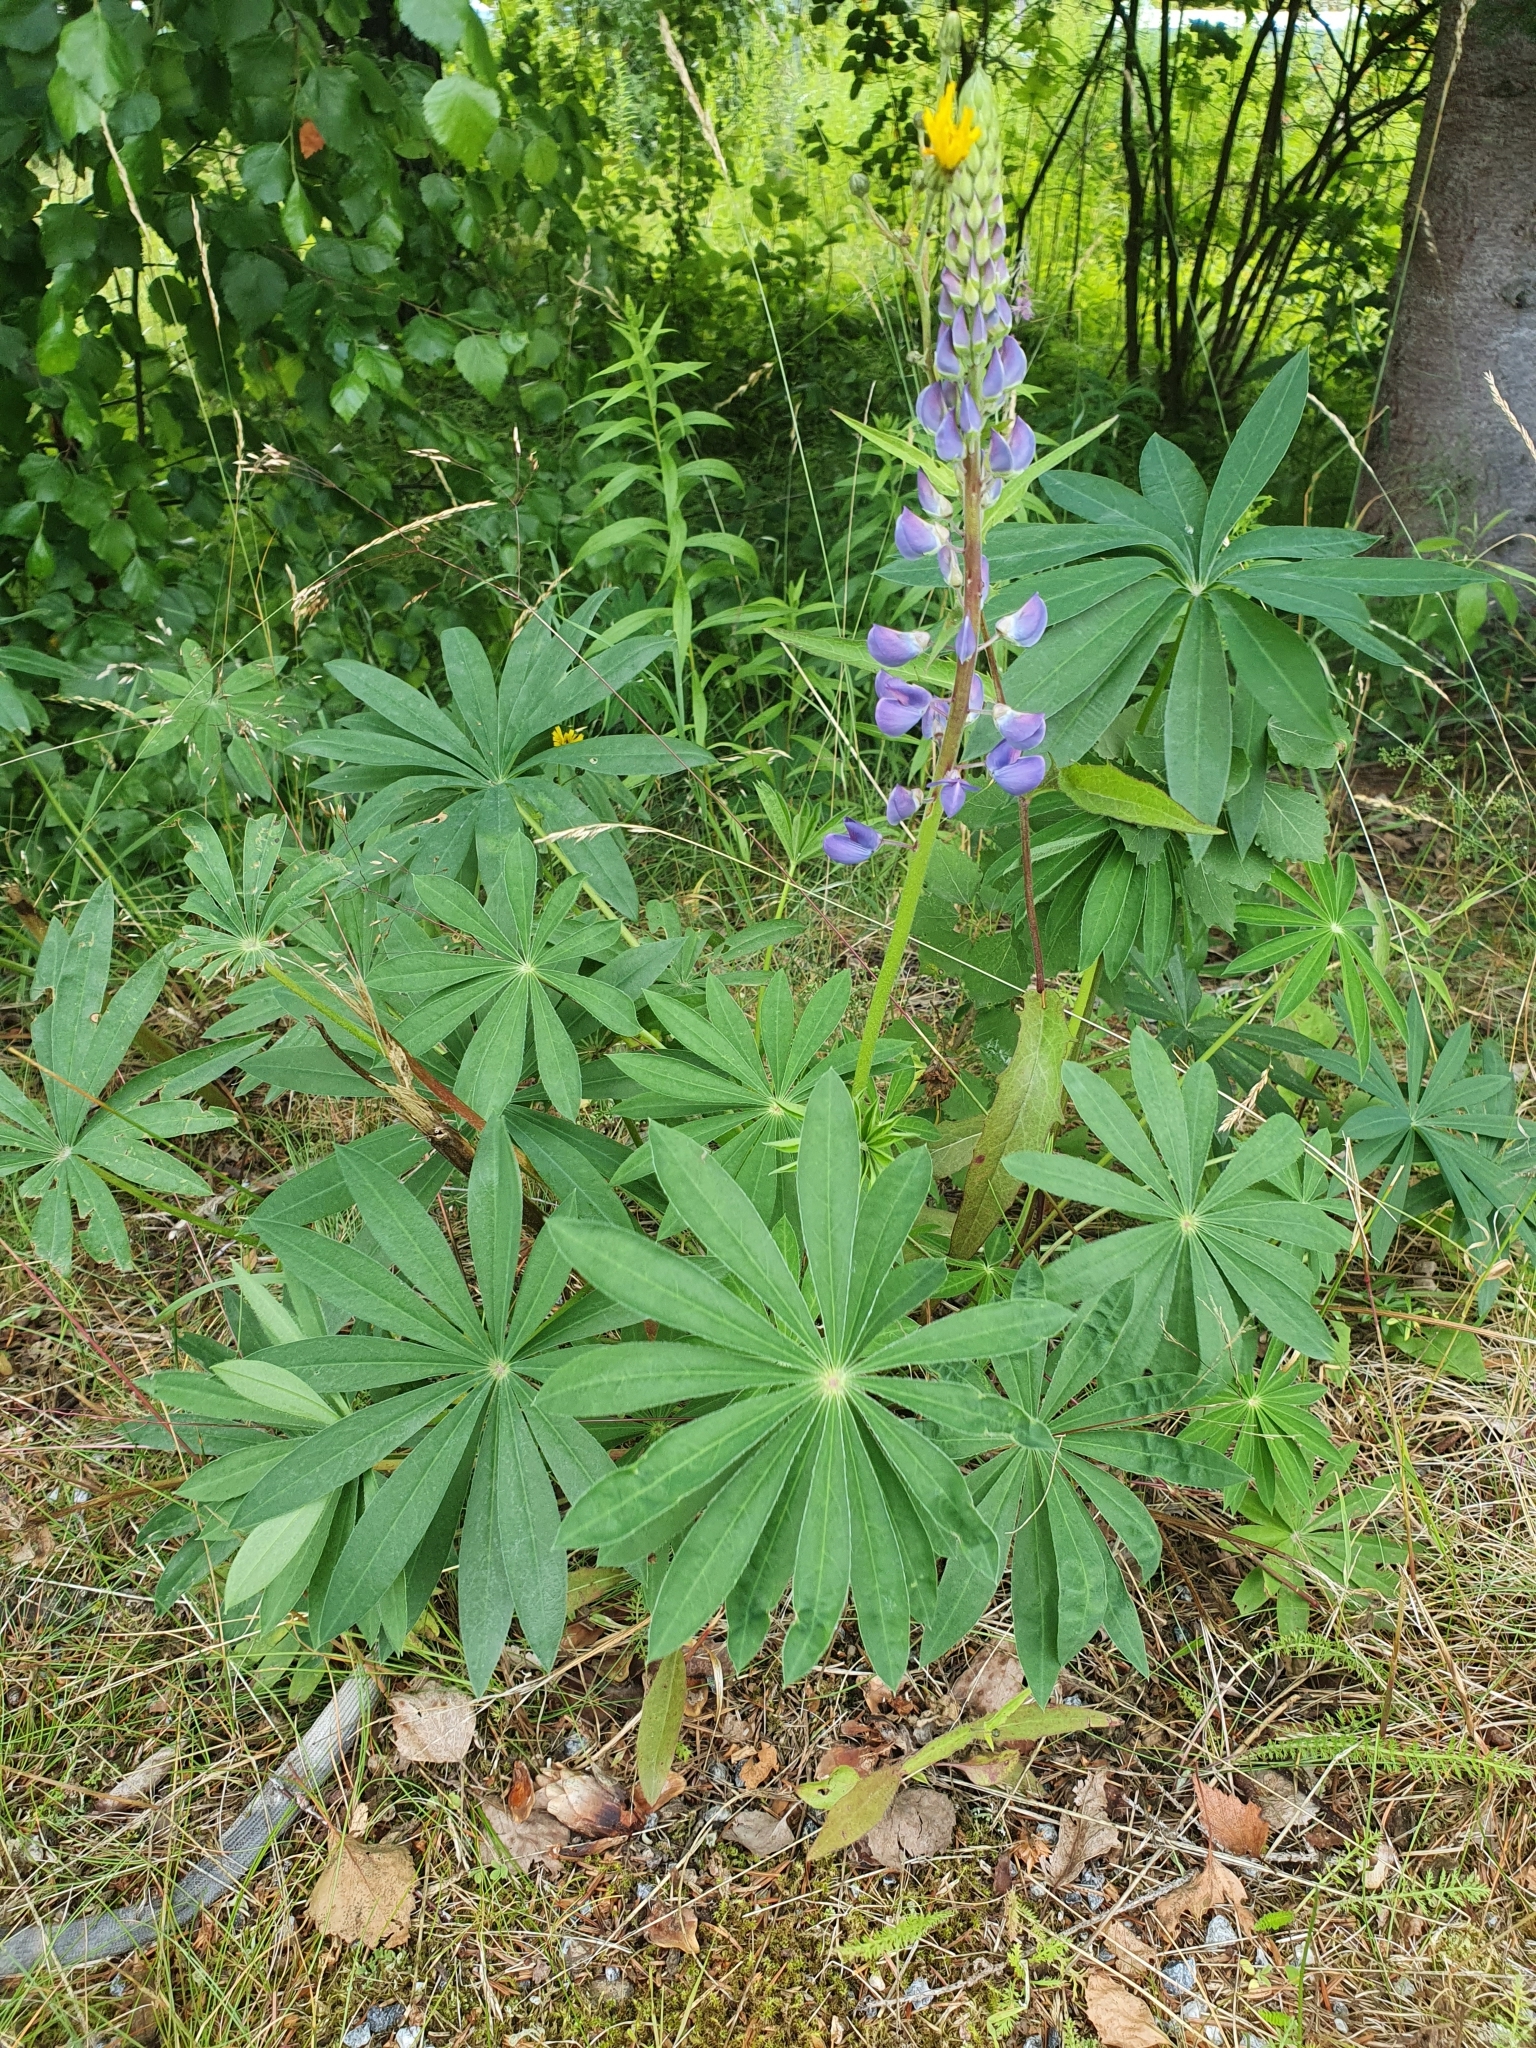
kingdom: Plantae
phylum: Tracheophyta
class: Magnoliopsida
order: Fabales
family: Fabaceae
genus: Lupinus
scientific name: Lupinus polyphyllus
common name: Garden lupin
